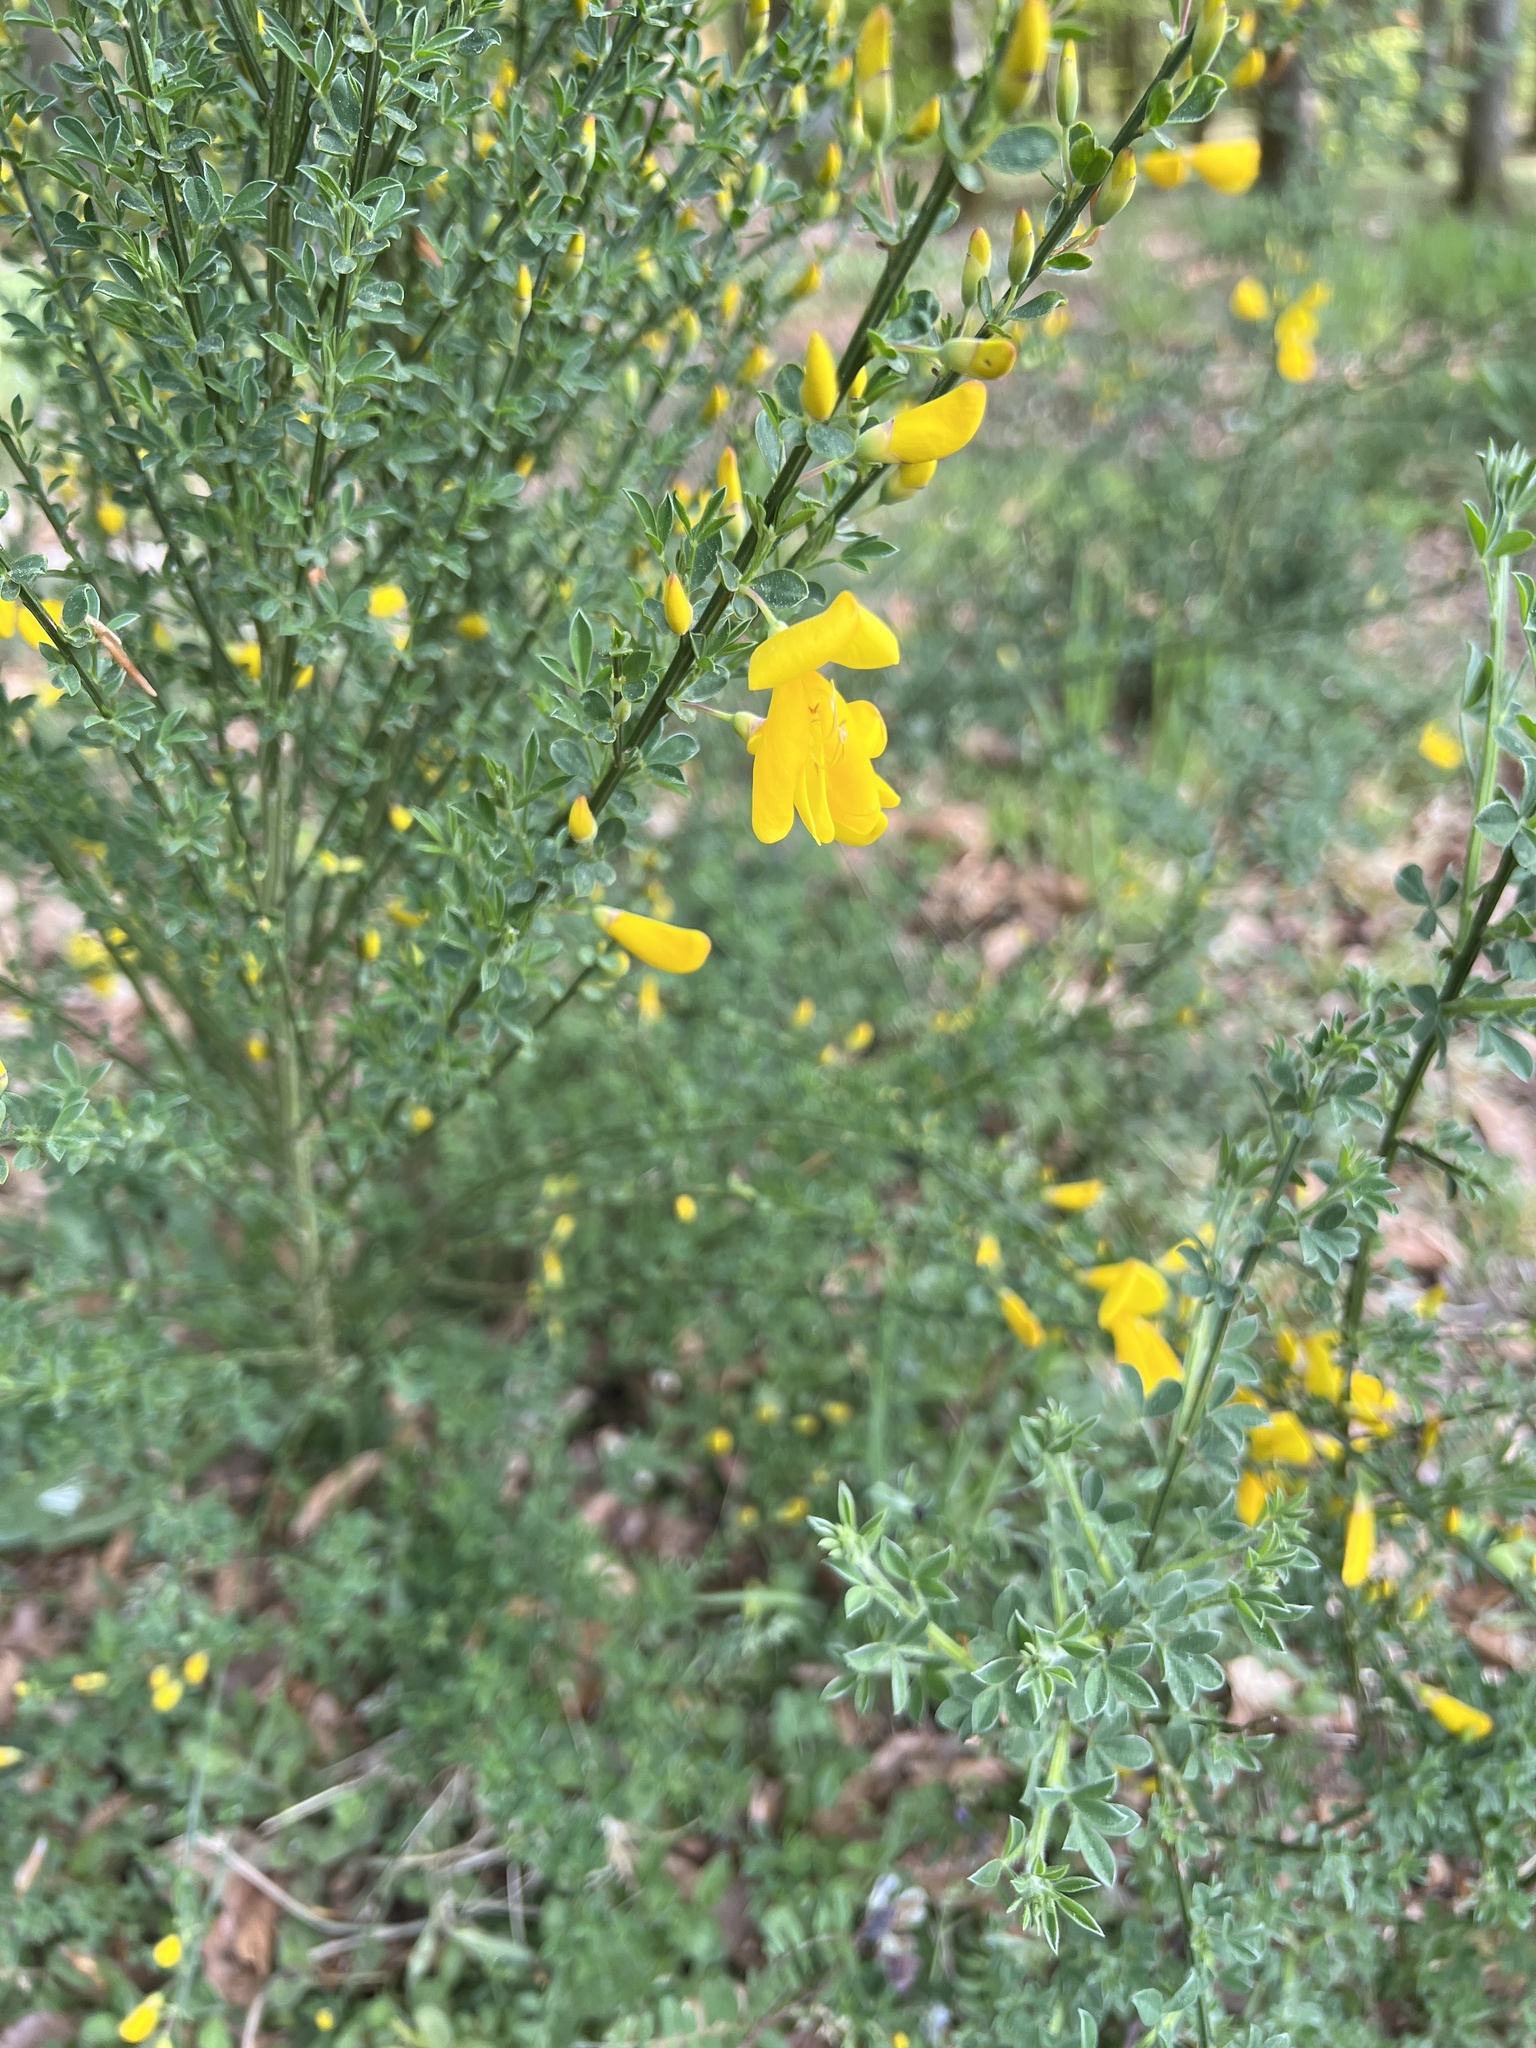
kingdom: Plantae
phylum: Tracheophyta
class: Magnoliopsida
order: Fabales
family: Fabaceae
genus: Cytisus
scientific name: Cytisus scoparius
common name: Scotch broom
